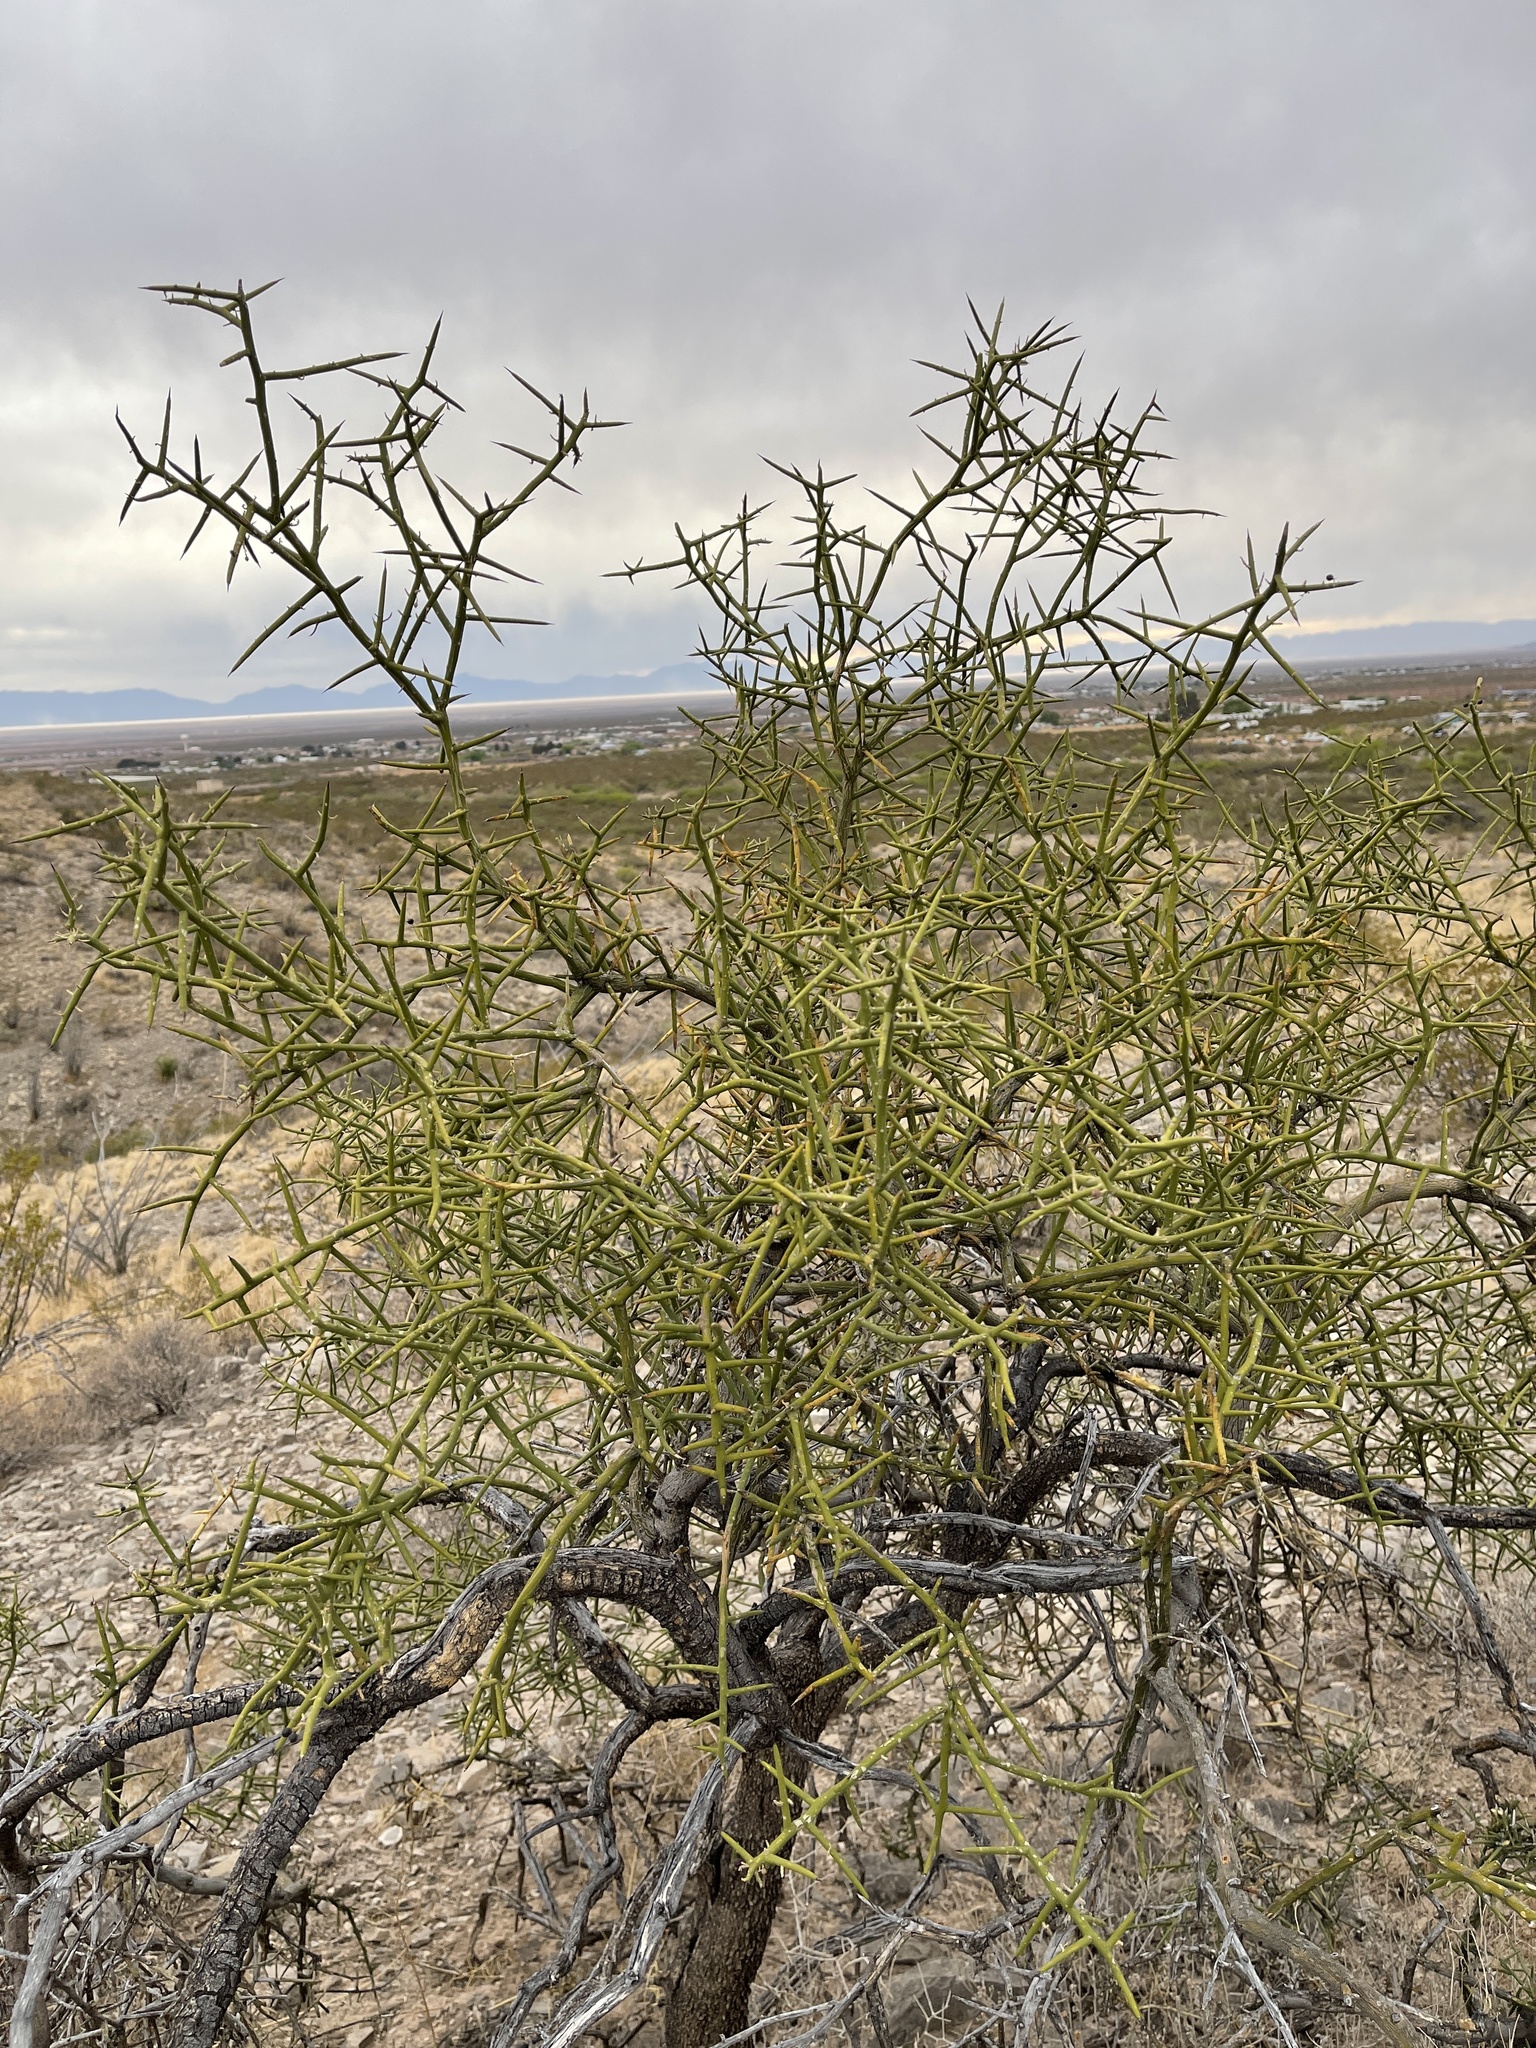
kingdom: Plantae
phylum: Tracheophyta
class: Magnoliopsida
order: Brassicales
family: Koeberliniaceae
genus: Koeberlinia
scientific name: Koeberlinia spinosa
